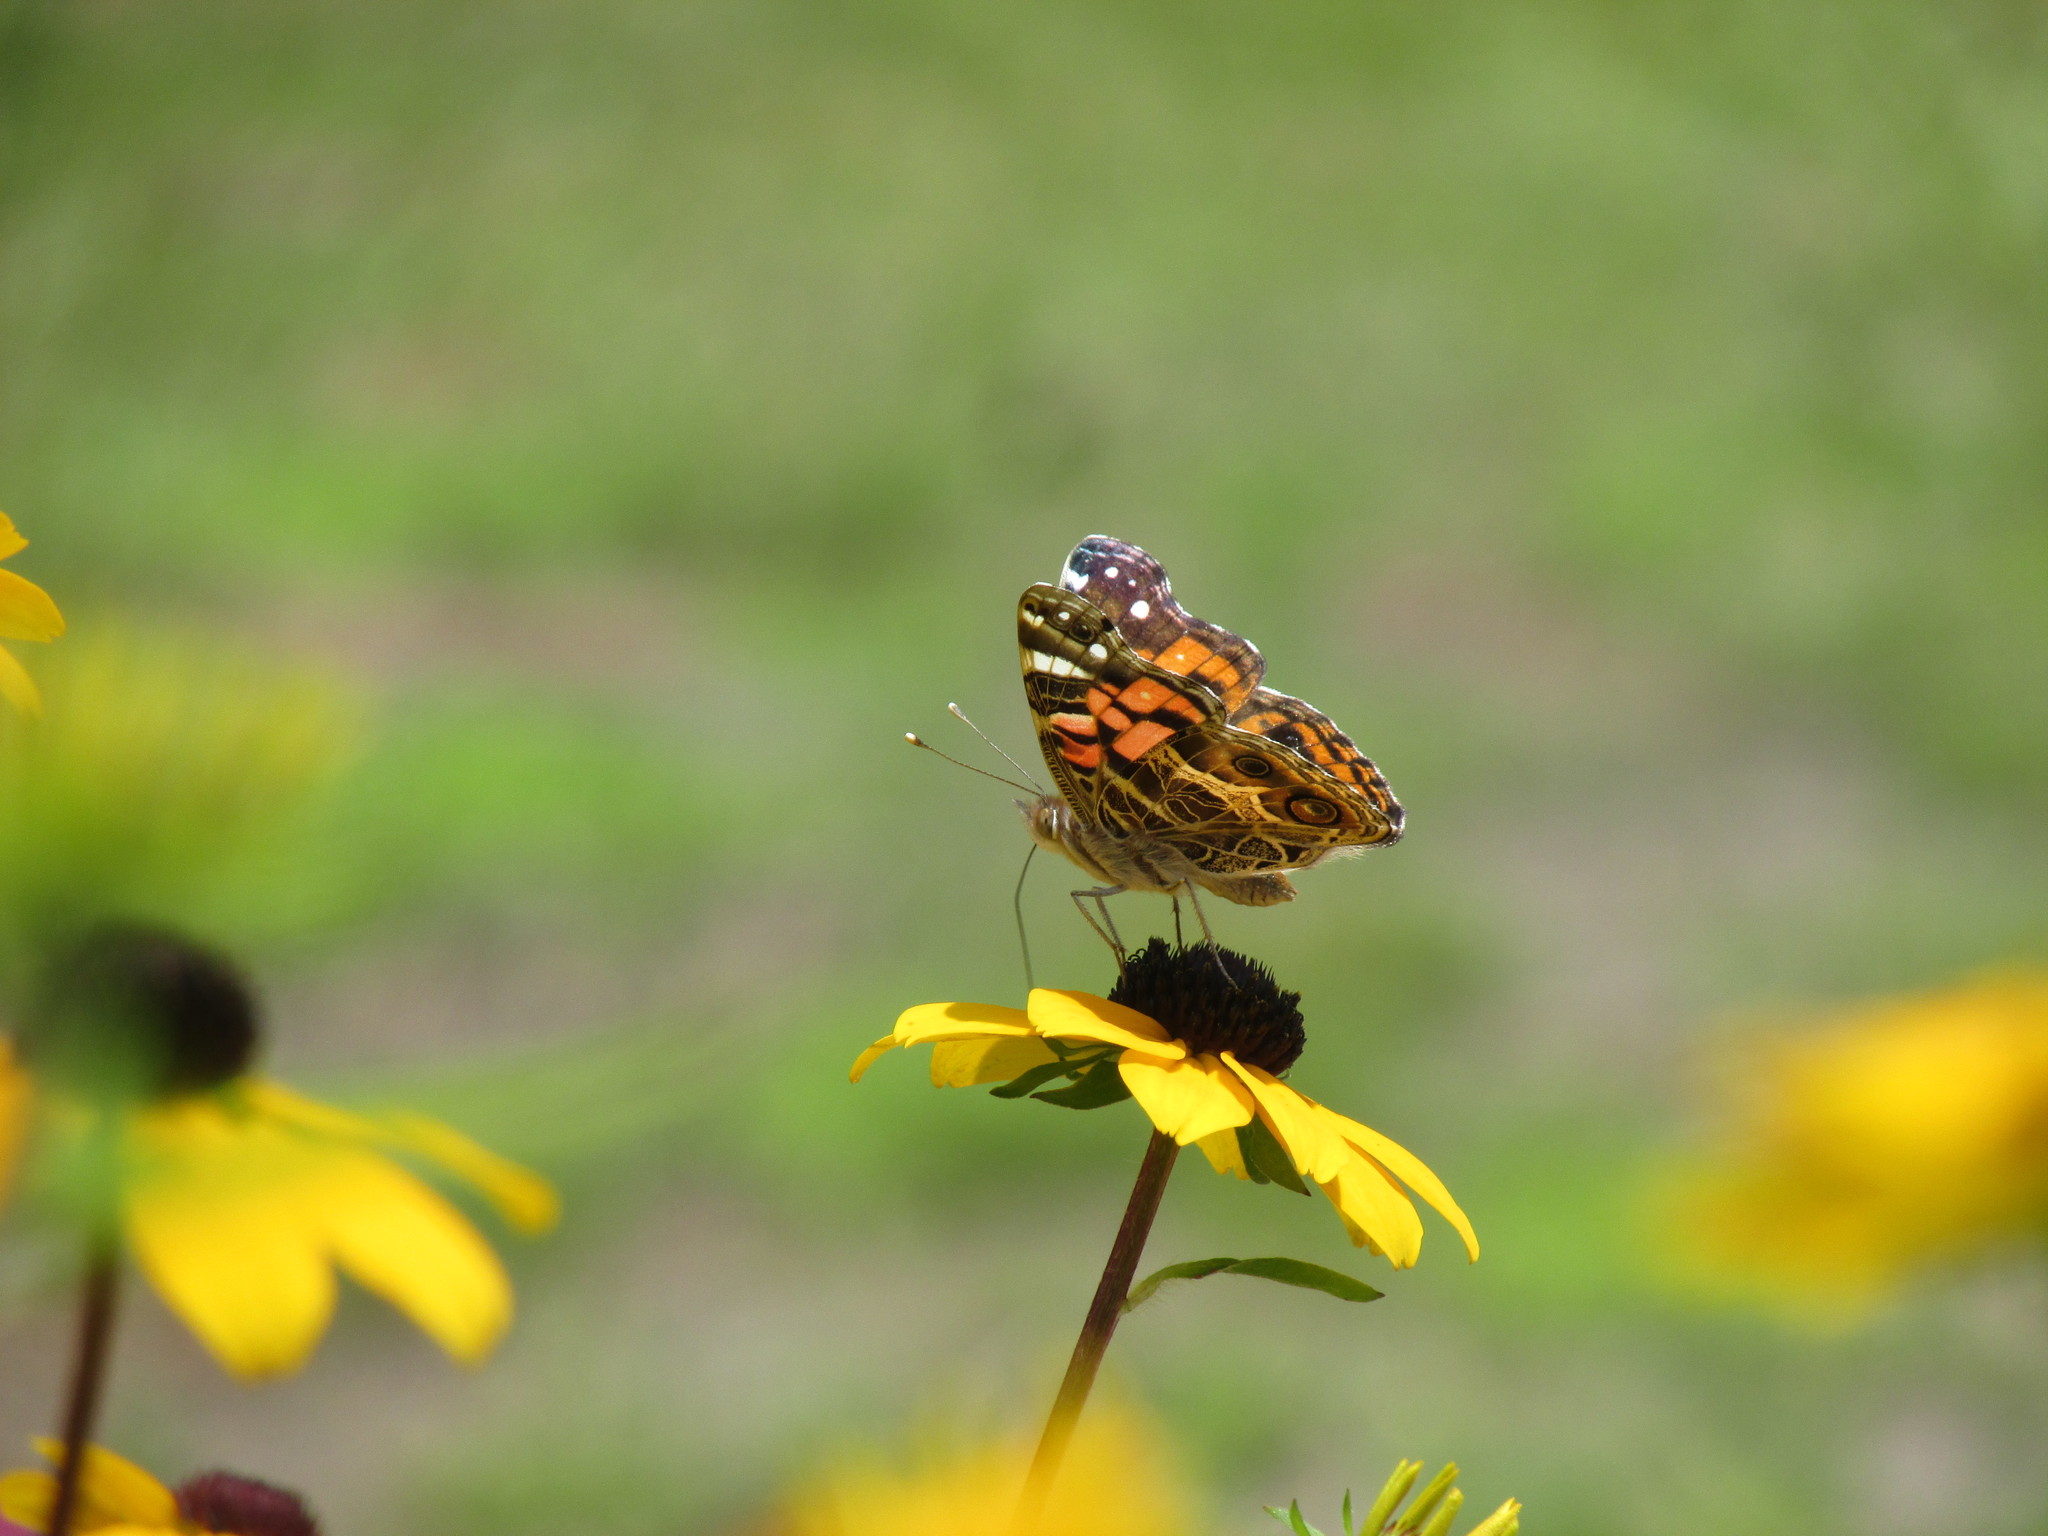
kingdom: Animalia
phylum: Arthropoda
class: Insecta
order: Lepidoptera
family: Nymphalidae
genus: Vanessa
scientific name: Vanessa virginiensis
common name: American lady
